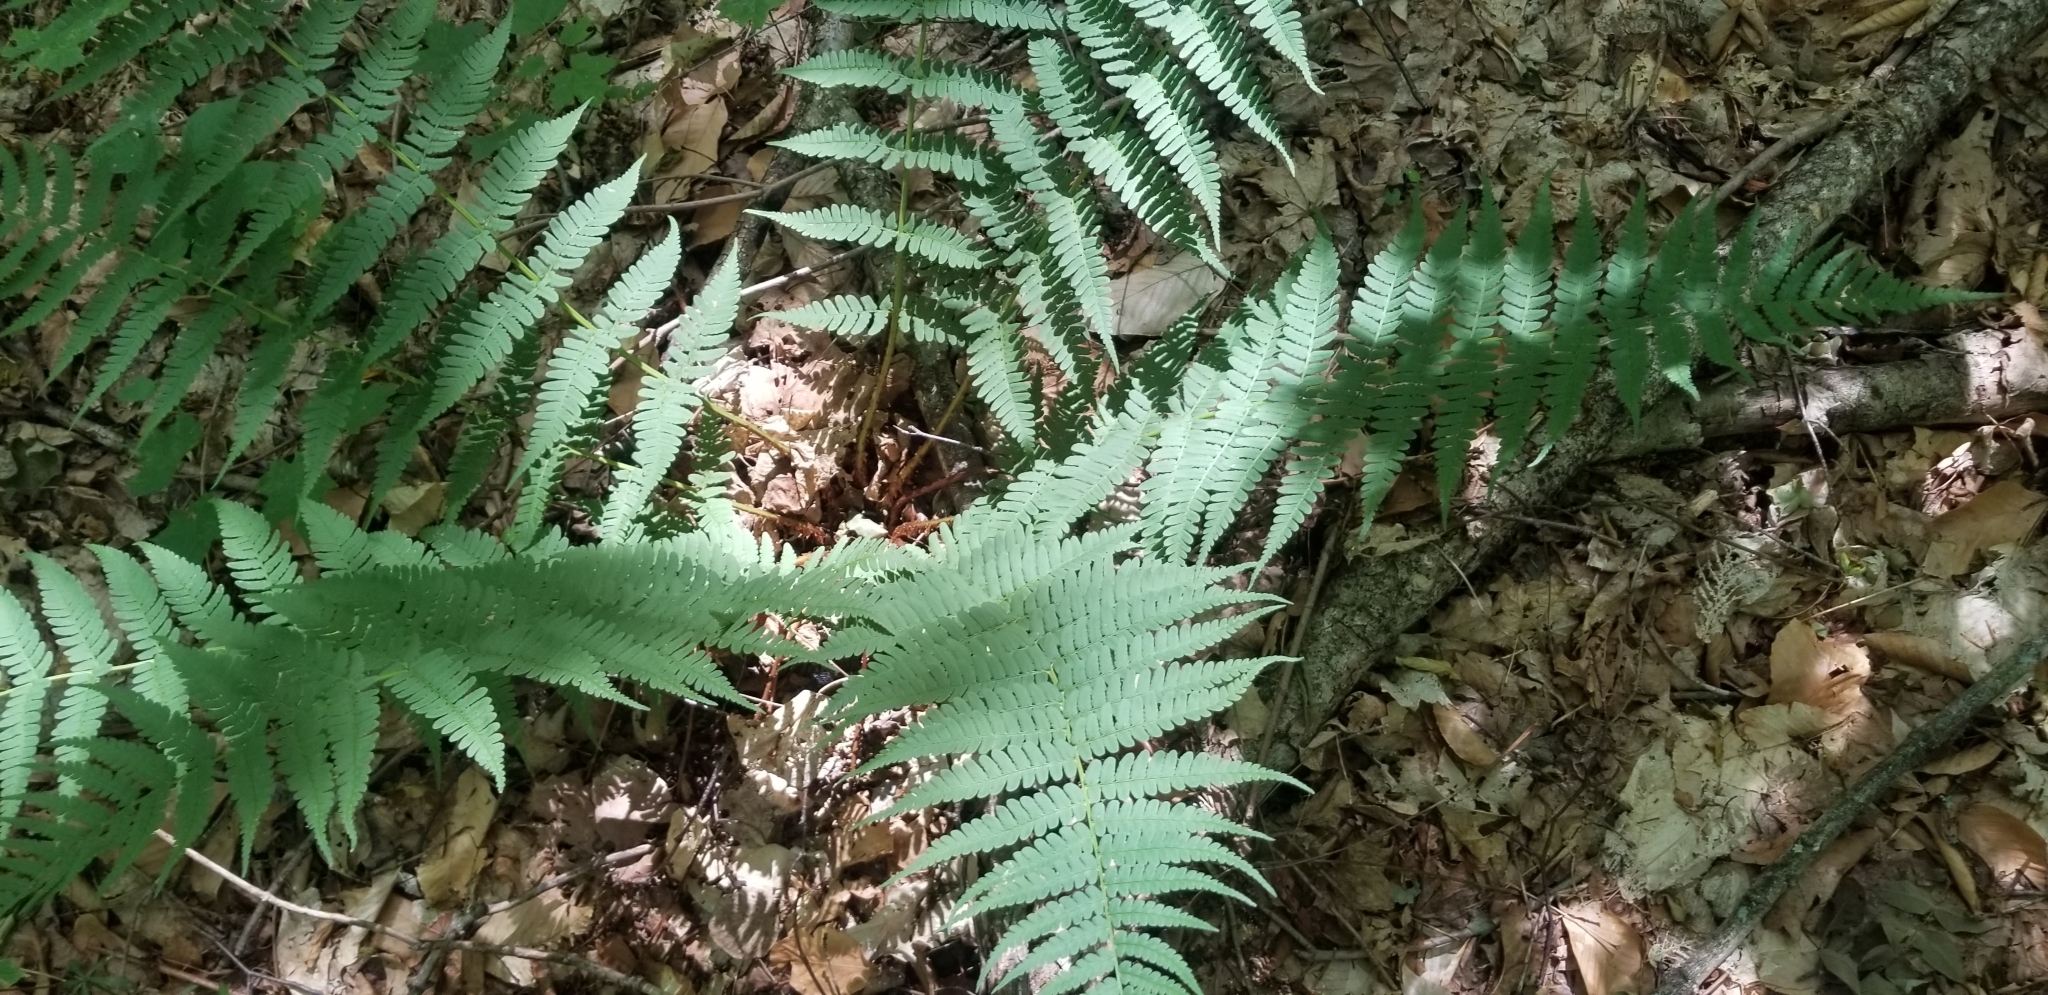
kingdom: Plantae
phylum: Tracheophyta
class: Polypodiopsida
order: Polypodiales
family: Dryopteridaceae
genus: Dryopteris
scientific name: Dryopteris marginalis
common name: Marginal wood fern
